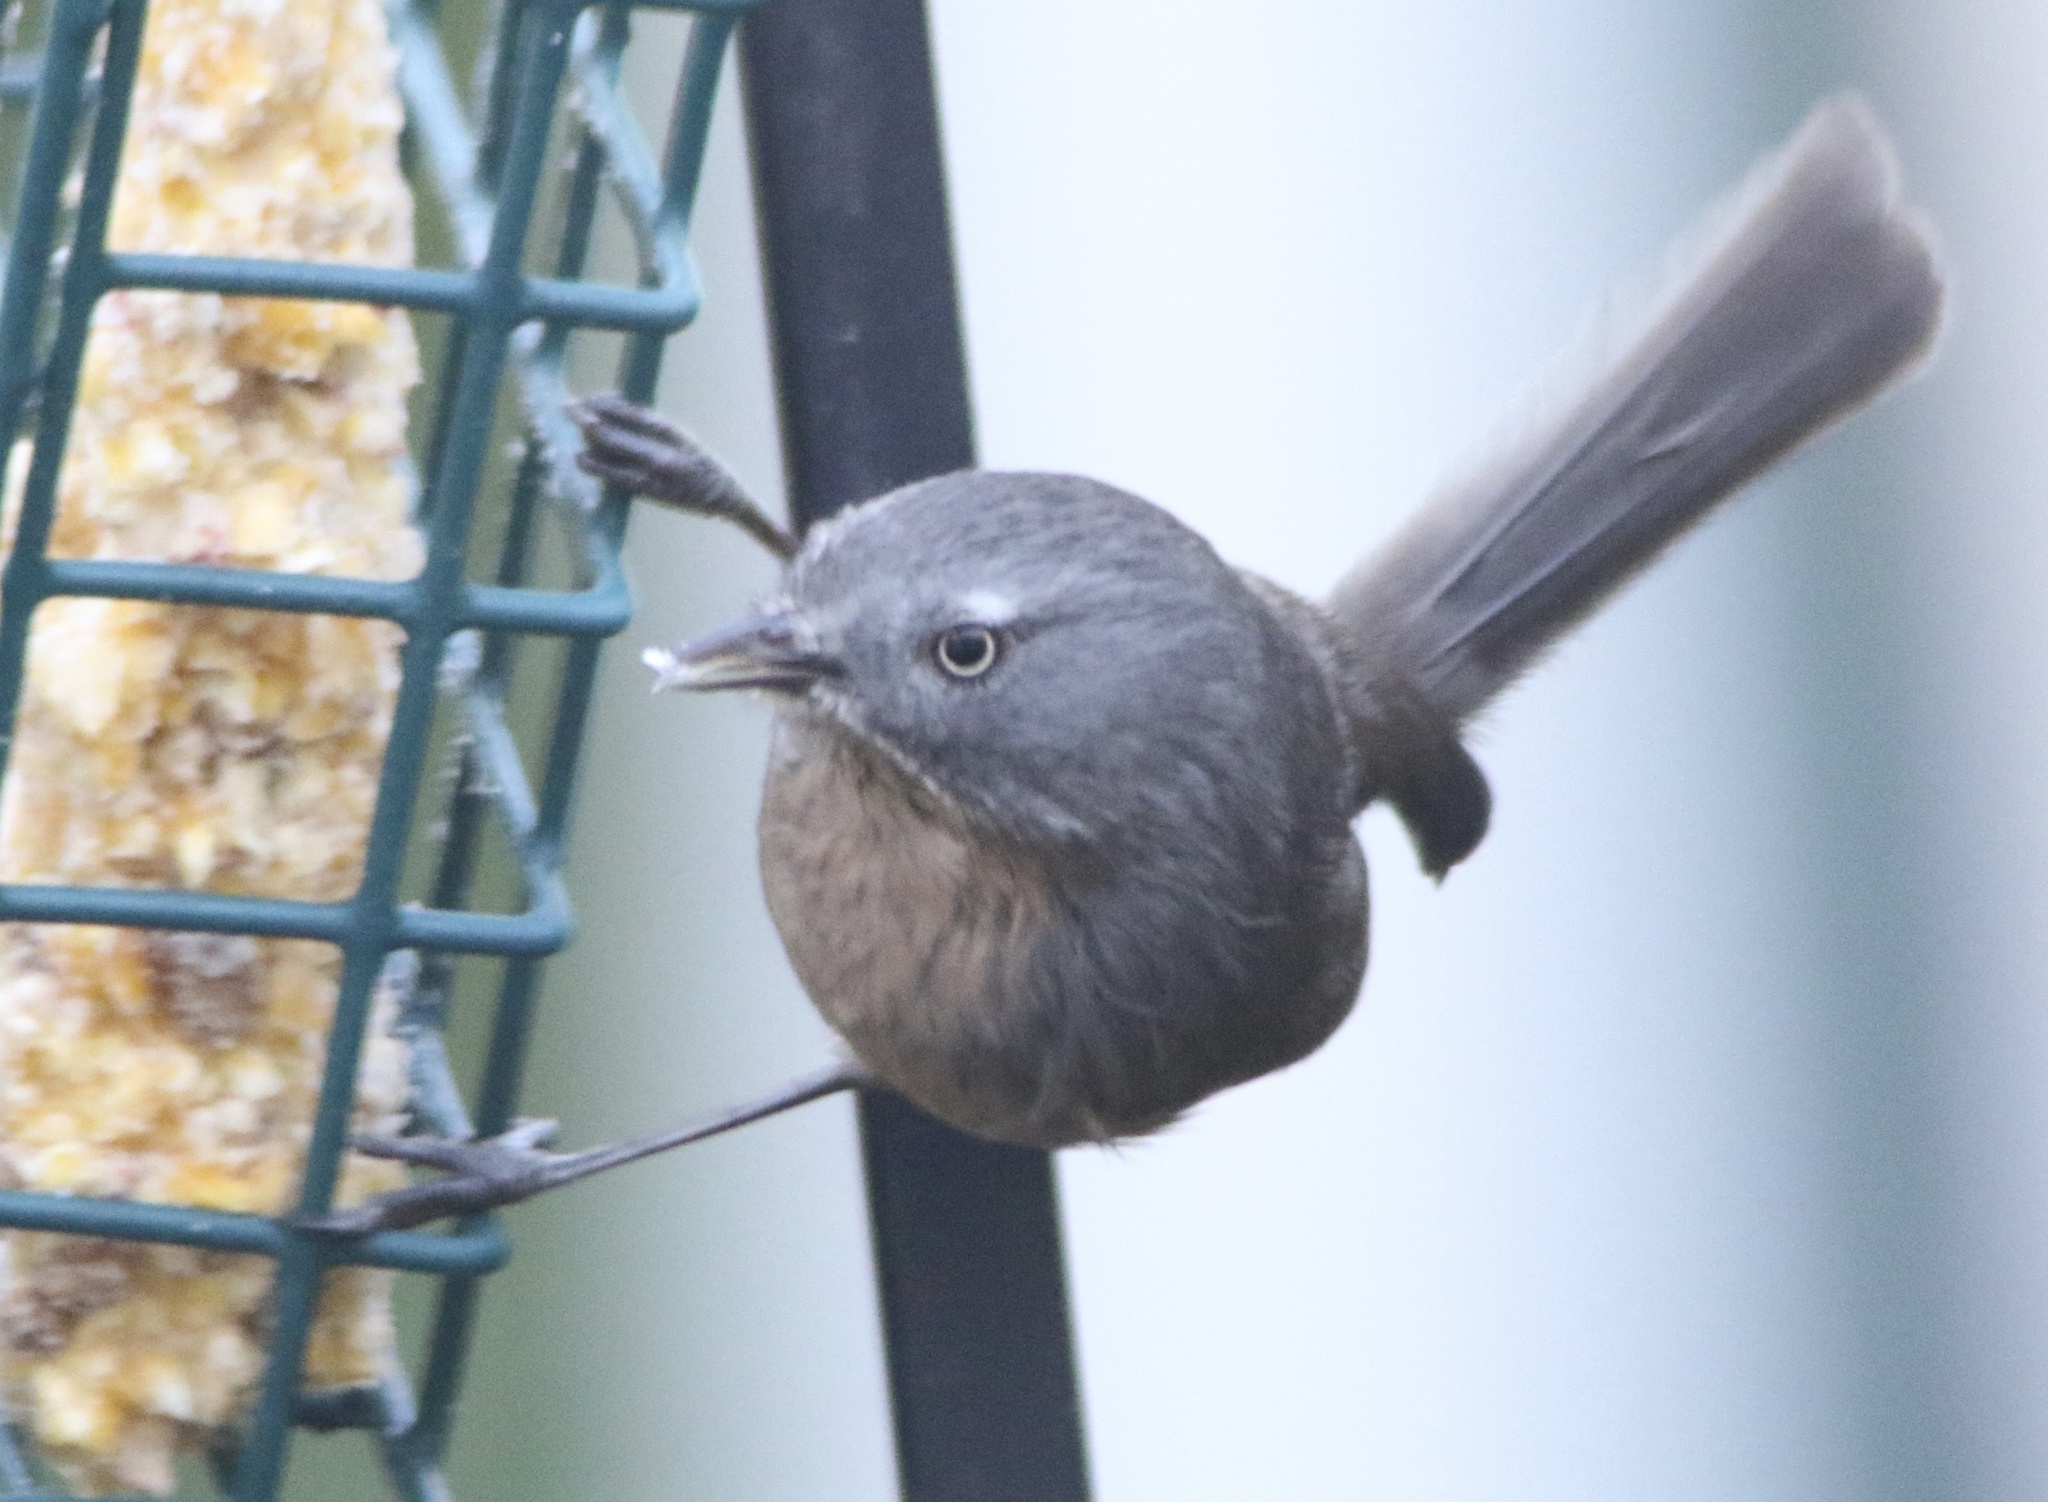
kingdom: Animalia
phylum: Chordata
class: Aves
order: Passeriformes
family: Sylviidae
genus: Chamaea
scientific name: Chamaea fasciata
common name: Wrentit
